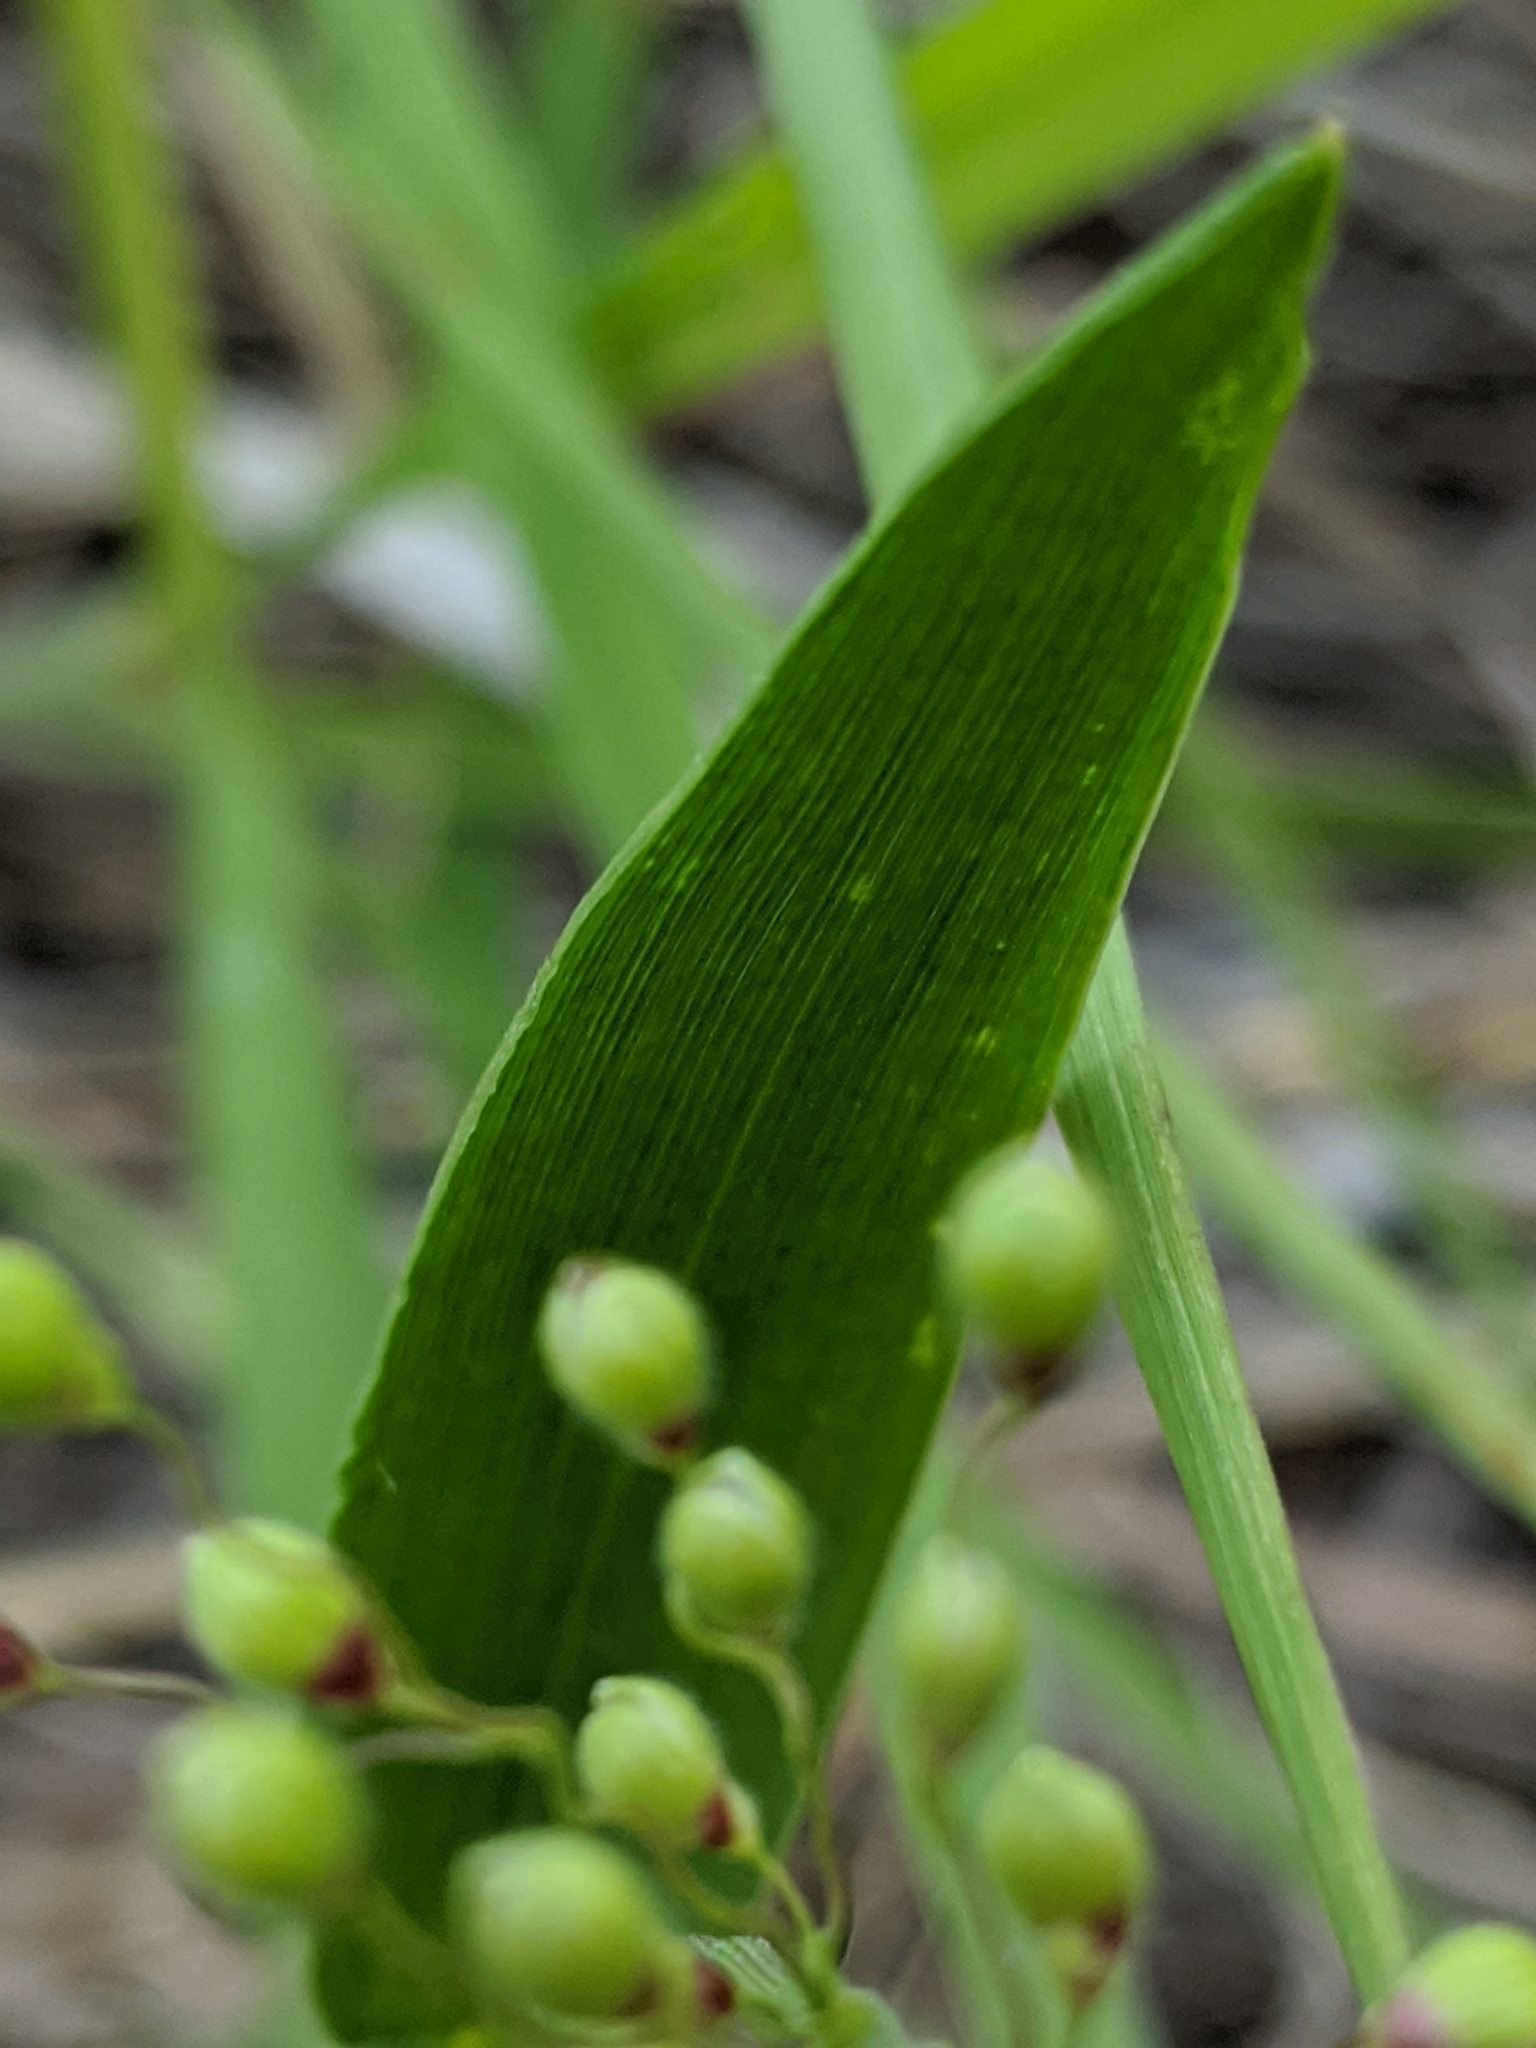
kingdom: Plantae
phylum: Tracheophyta
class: Liliopsida
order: Poales
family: Poaceae
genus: Dichanthelium
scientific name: Dichanthelium oligosanthes
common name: Few-anther obscuregrass
